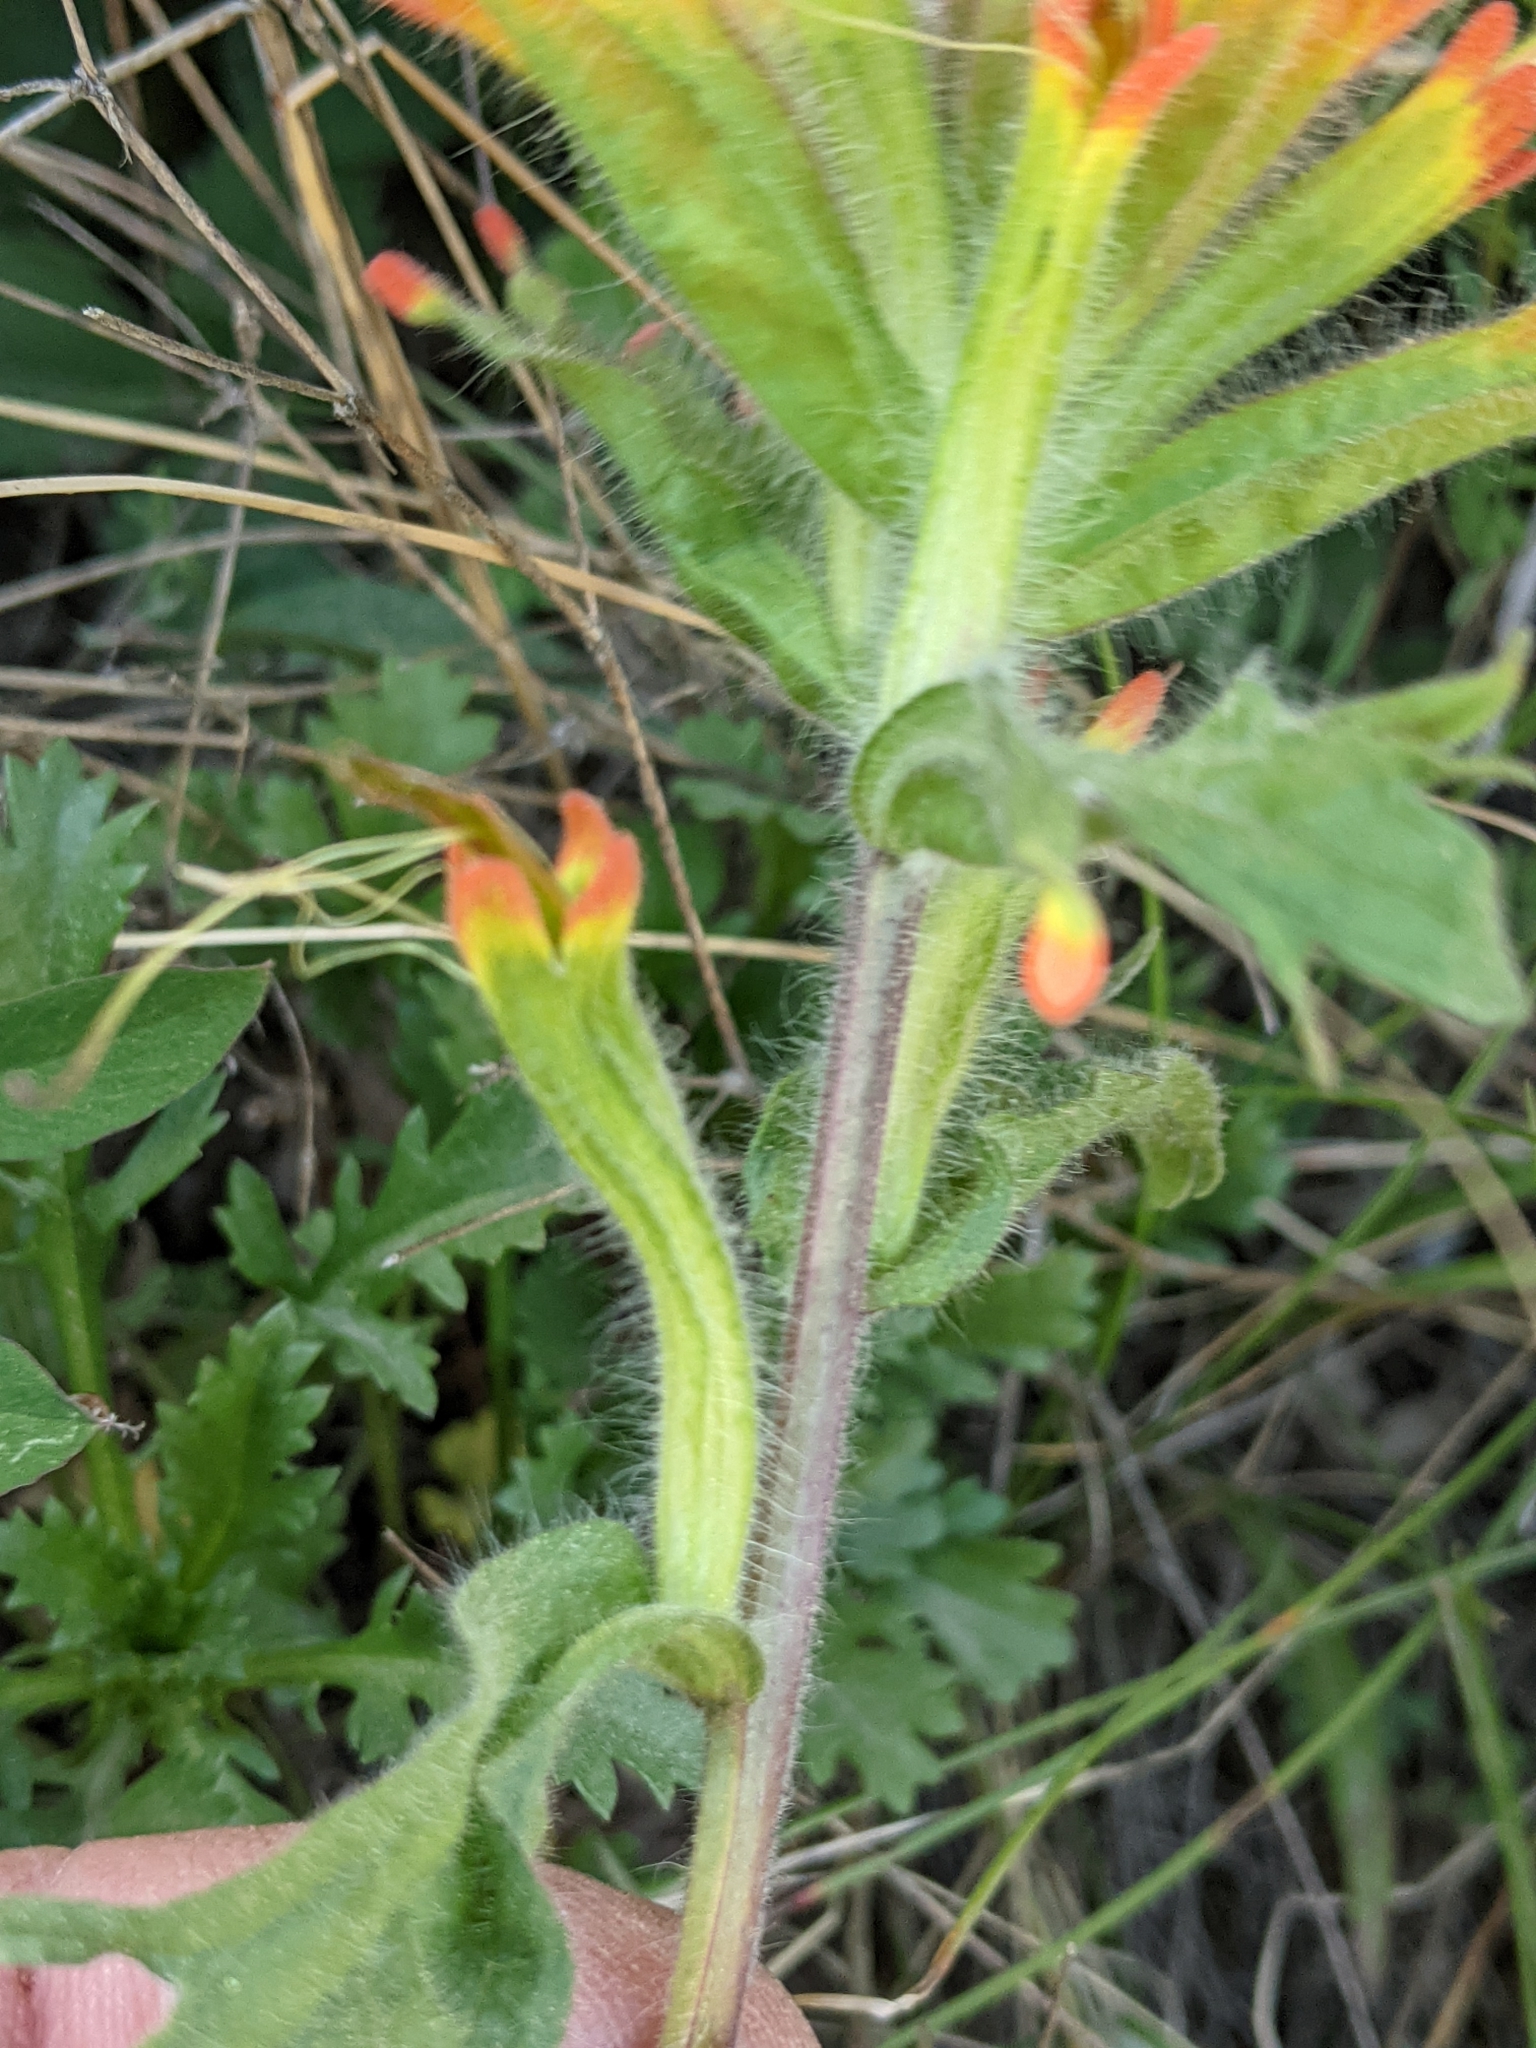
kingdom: Plantae
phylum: Tracheophyta
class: Magnoliopsida
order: Lamiales
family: Orobanchaceae
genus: Castilleja
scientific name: Castilleja hispida
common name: Bristly paintbrush
